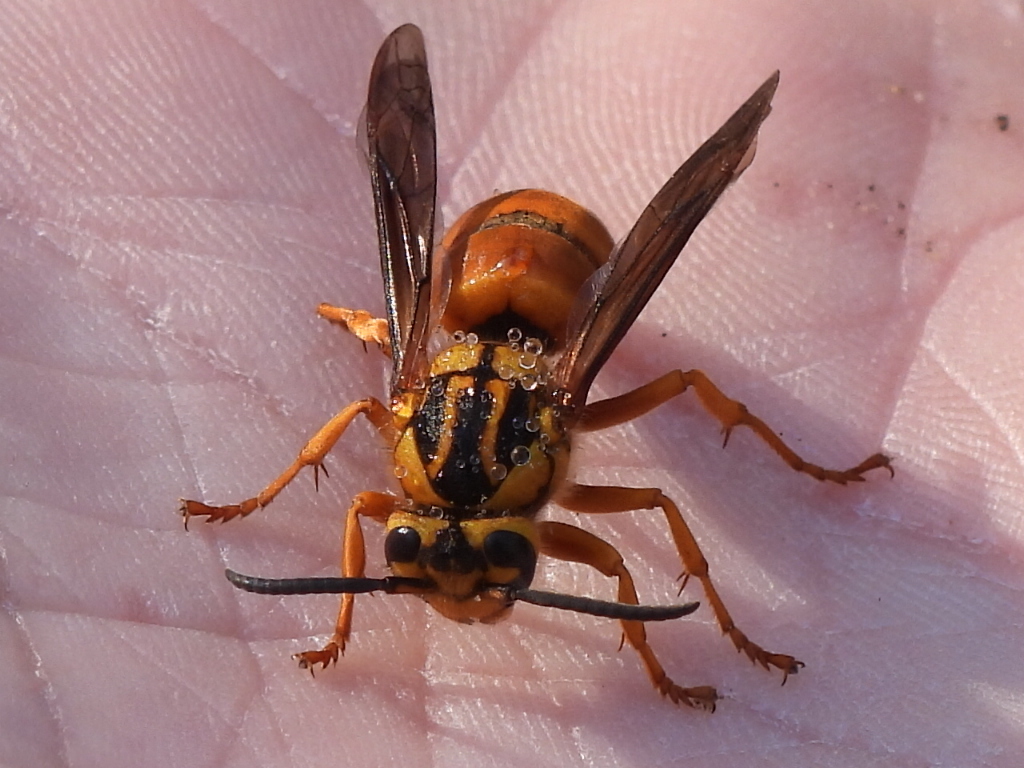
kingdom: Animalia
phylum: Arthropoda
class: Insecta
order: Hymenoptera
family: Vespidae
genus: Vespula
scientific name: Vespula squamosa
